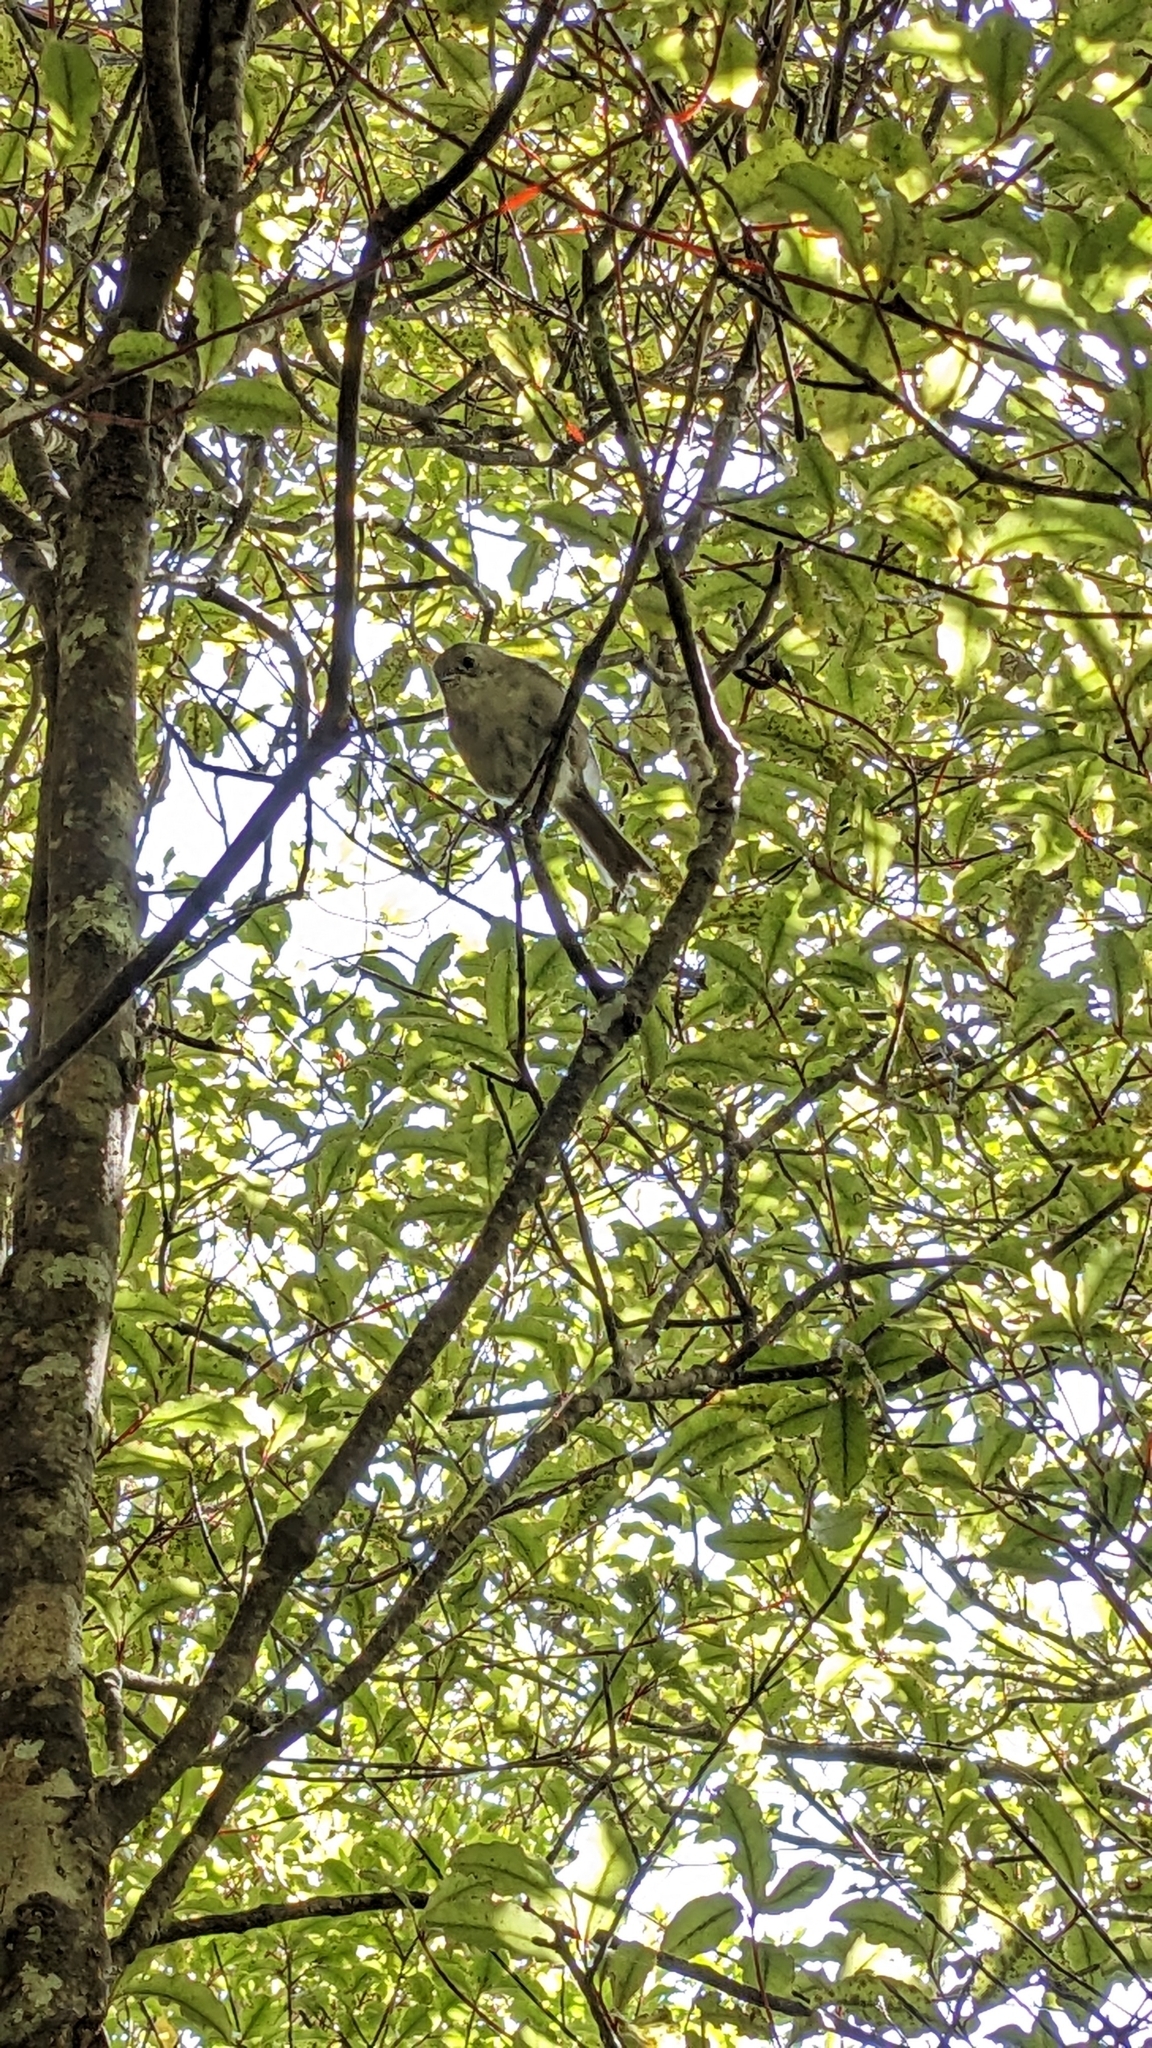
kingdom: Animalia
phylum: Chordata
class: Aves
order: Passeriformes
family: Acanthizidae
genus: Mohoua
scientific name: Mohoua albicilla
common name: Whitehead
